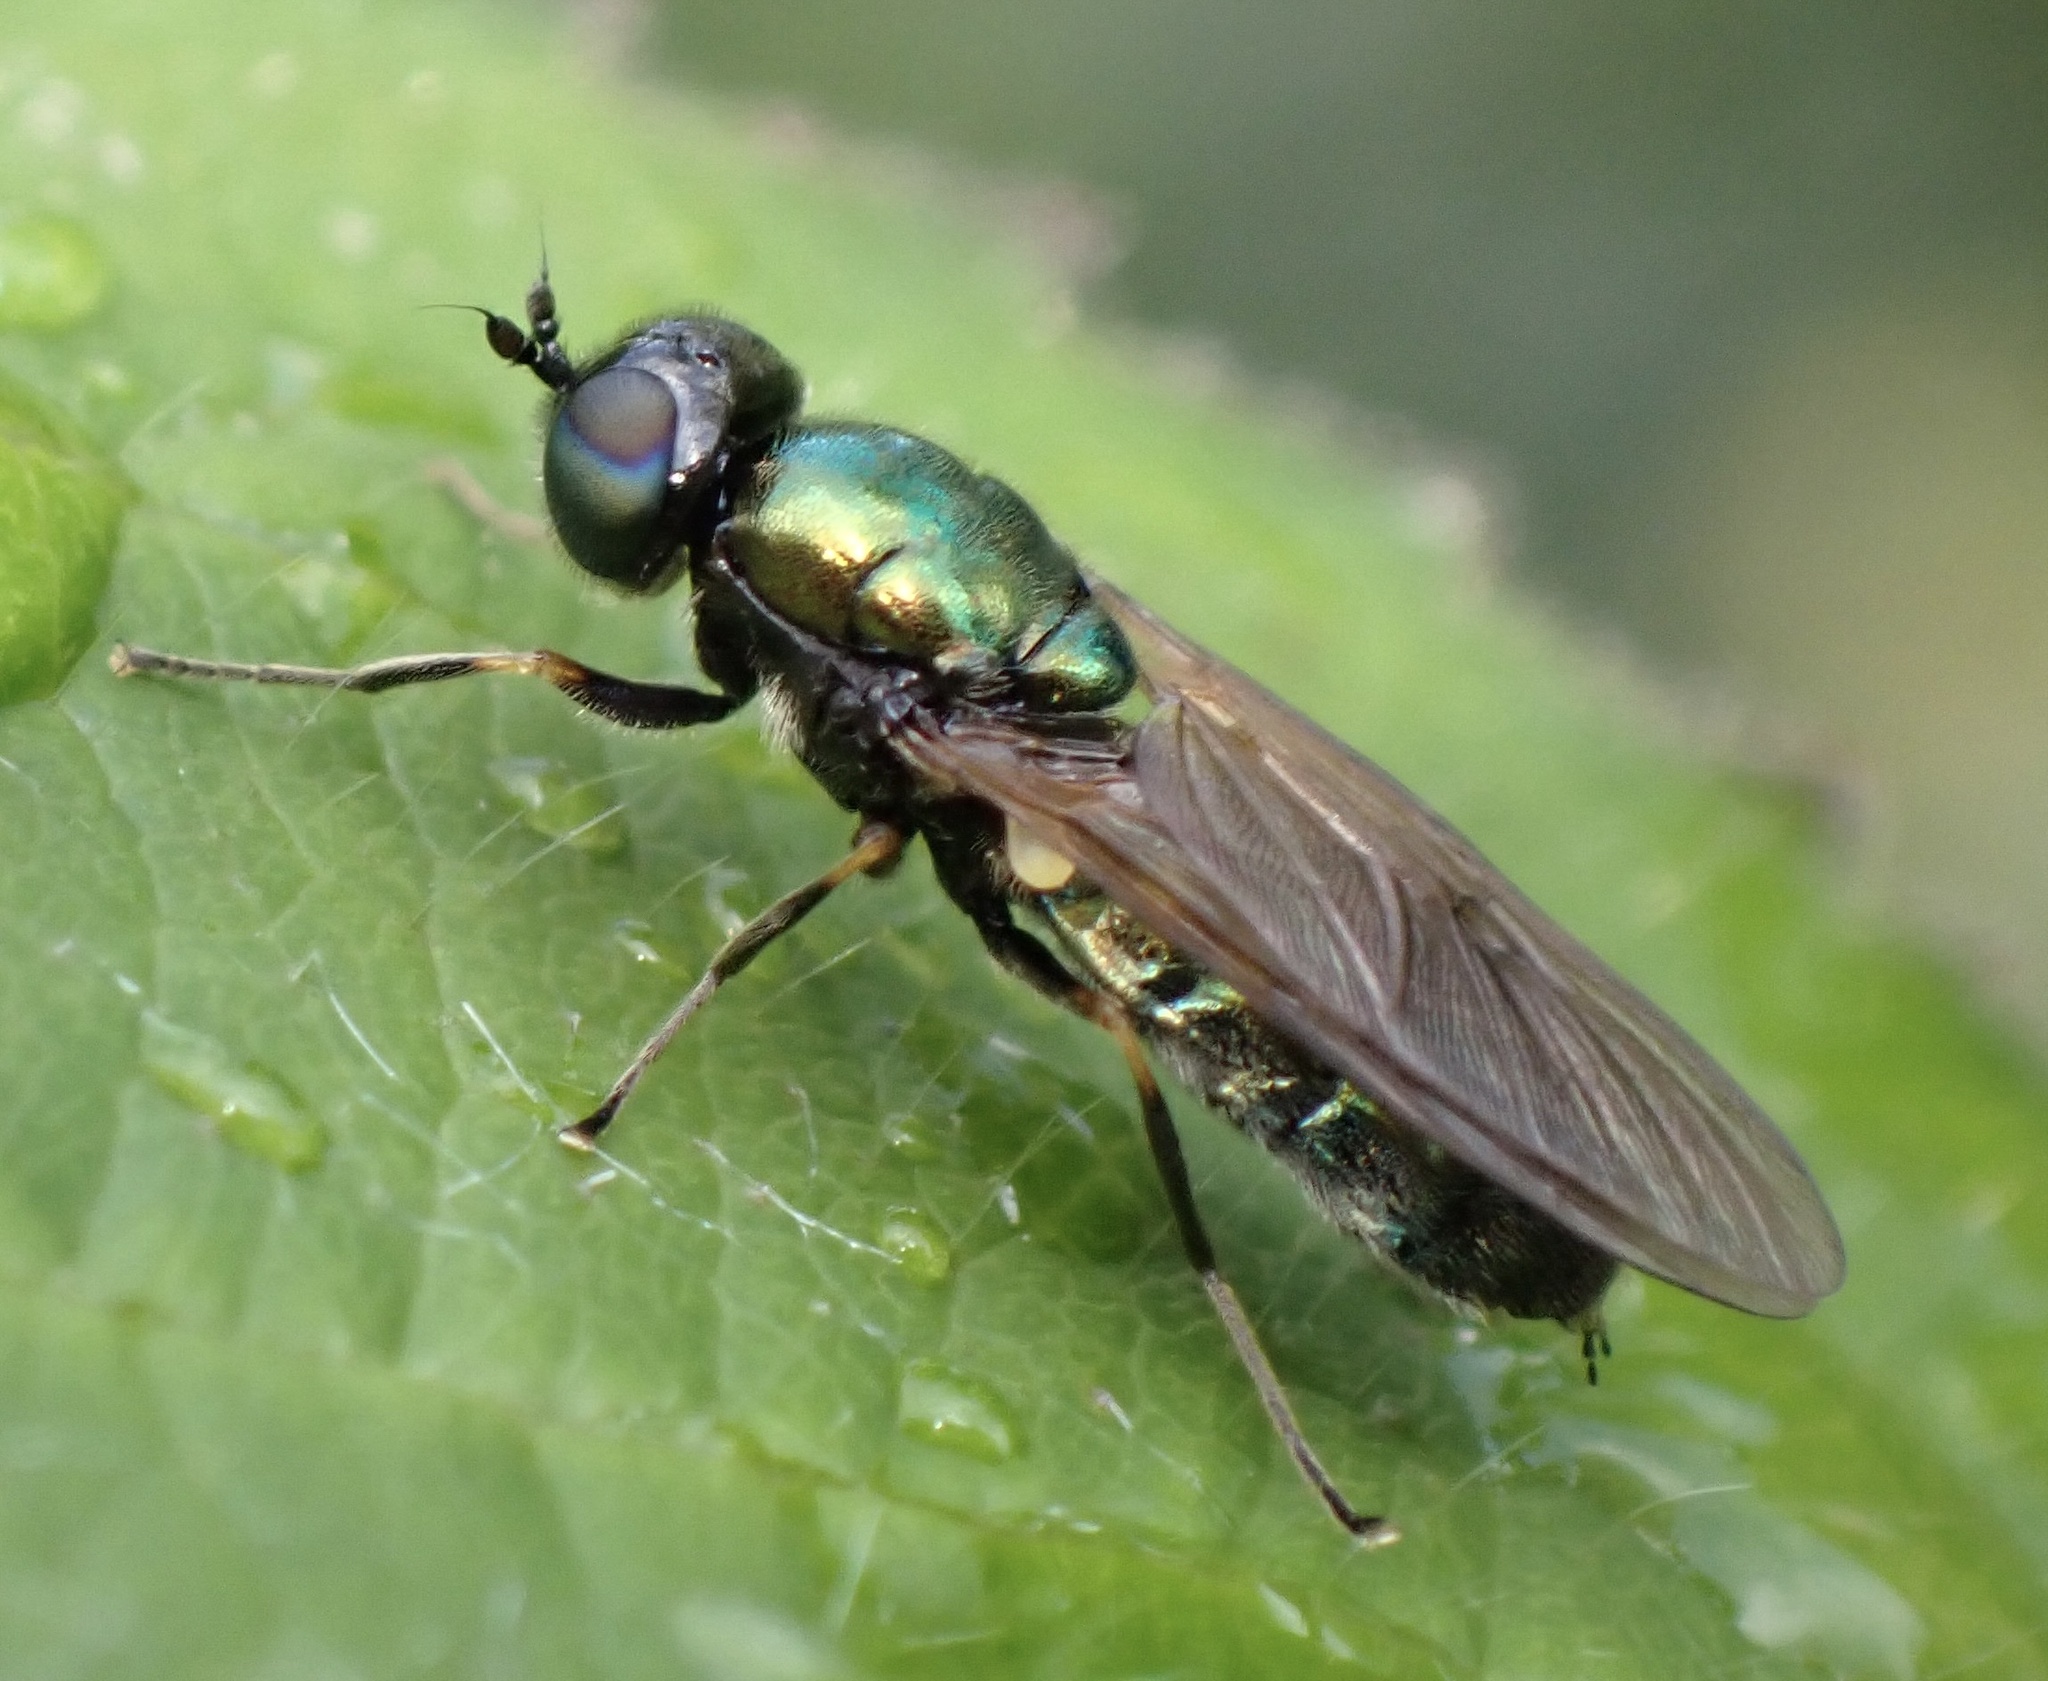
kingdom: Animalia
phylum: Arthropoda
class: Insecta
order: Diptera
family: Stratiomyidae
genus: Chloromyia
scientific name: Chloromyia formosa
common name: Soldier fly
